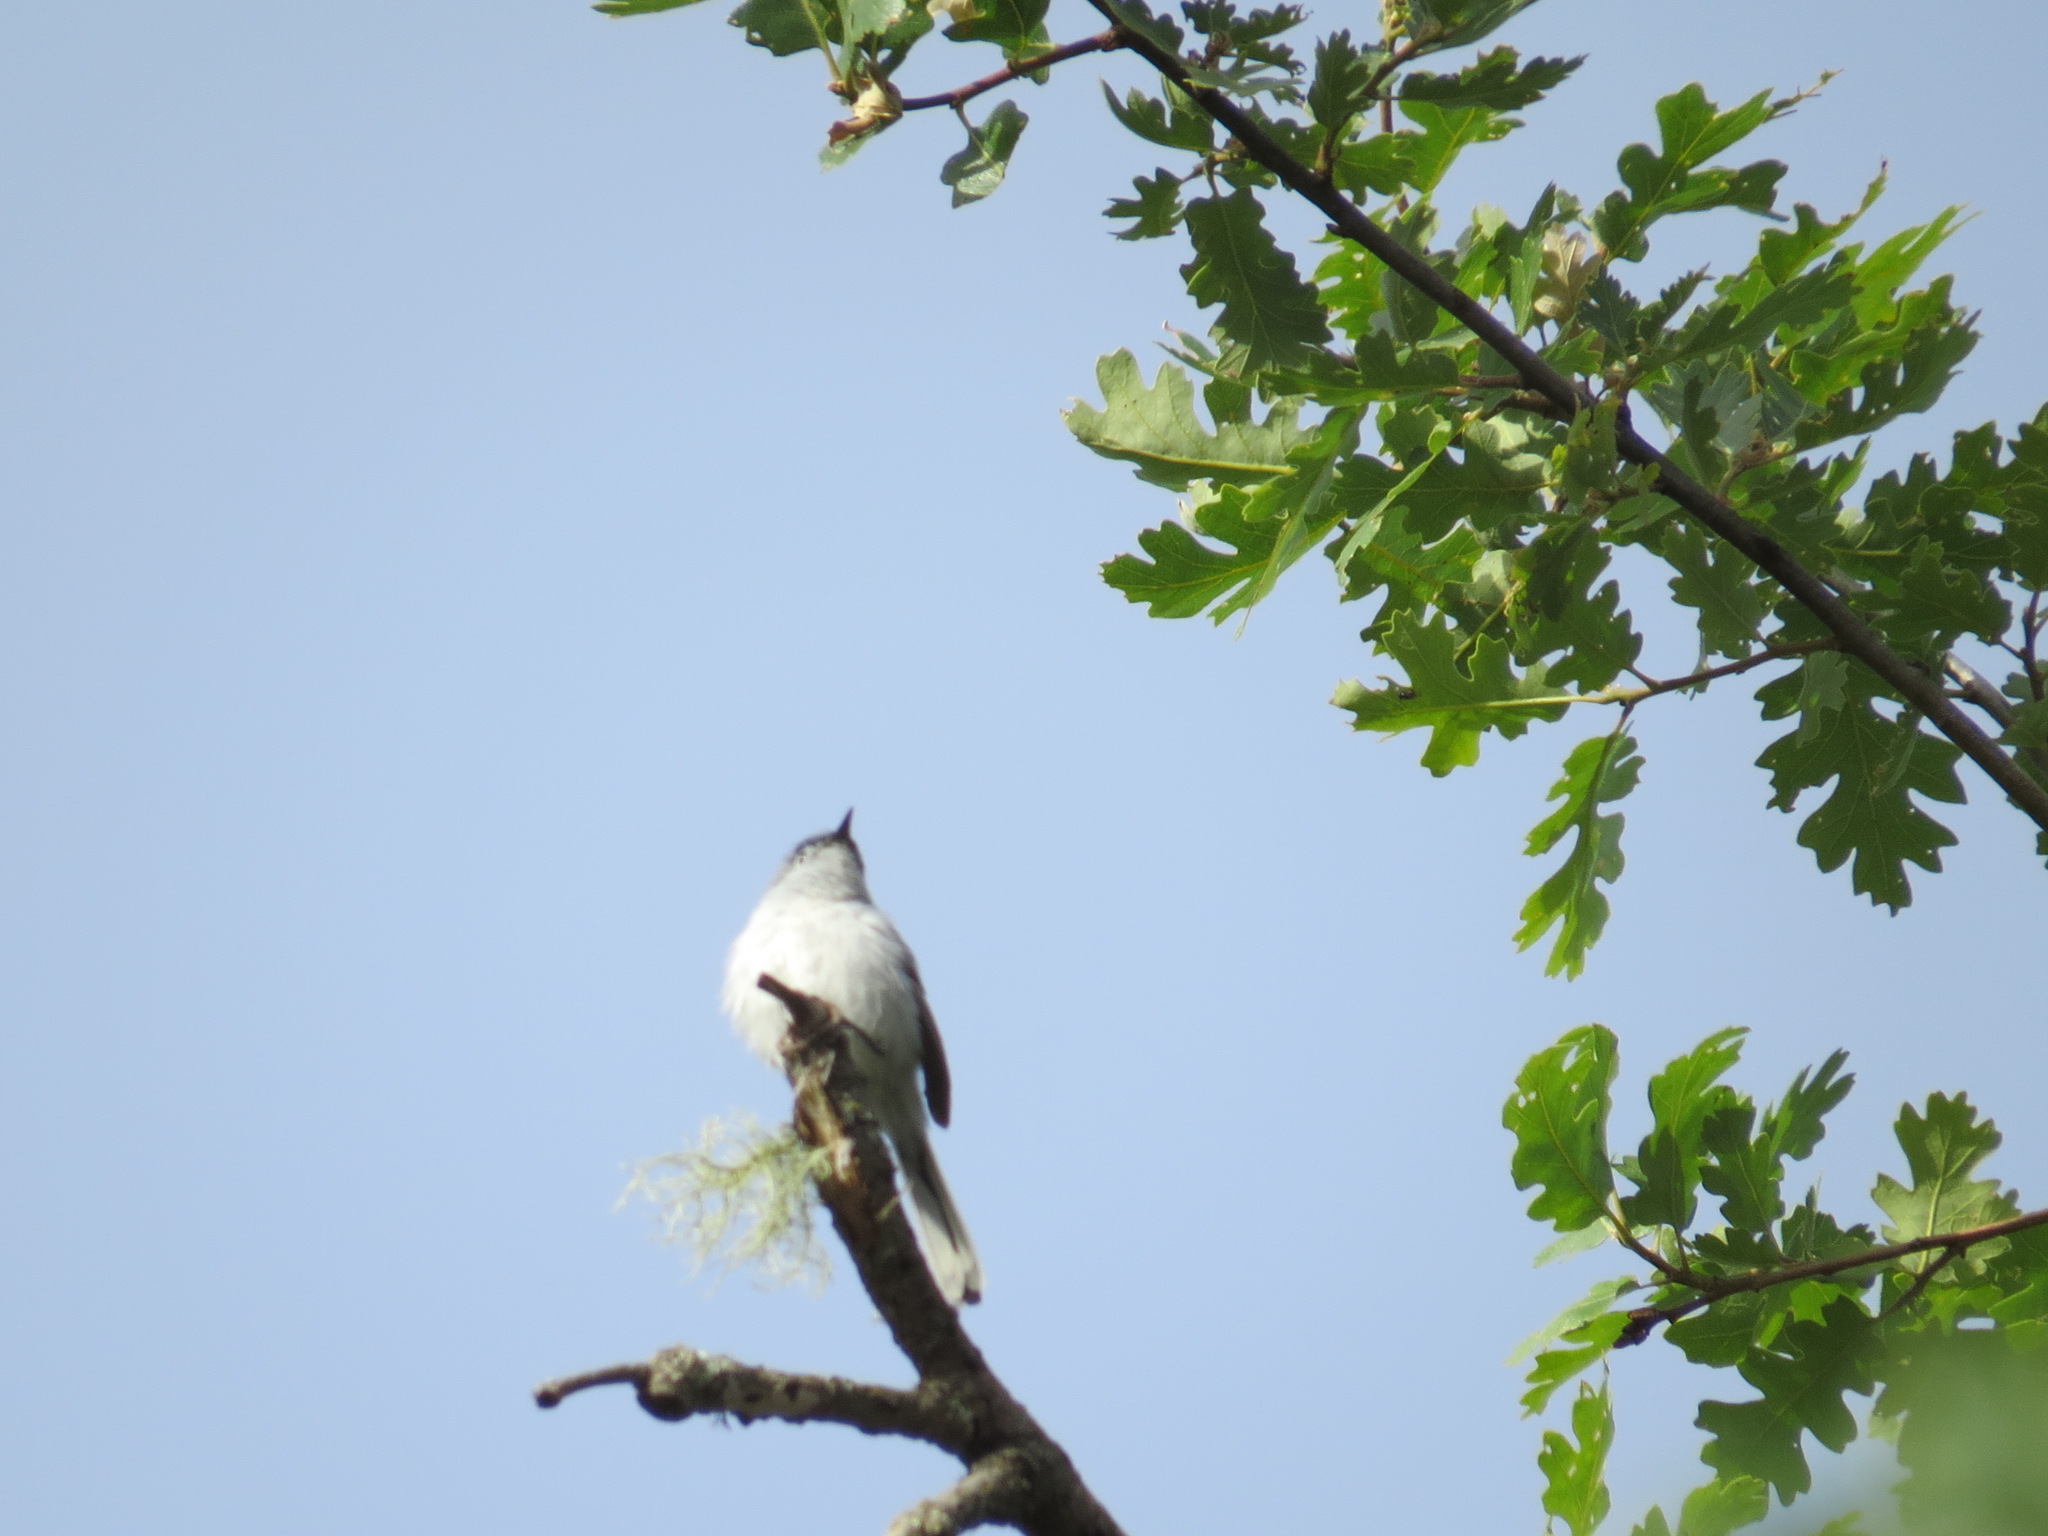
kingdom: Plantae
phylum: Tracheophyta
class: Magnoliopsida
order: Fagales
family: Fagaceae
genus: Quercus
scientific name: Quercus lobata
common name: Valley oak
